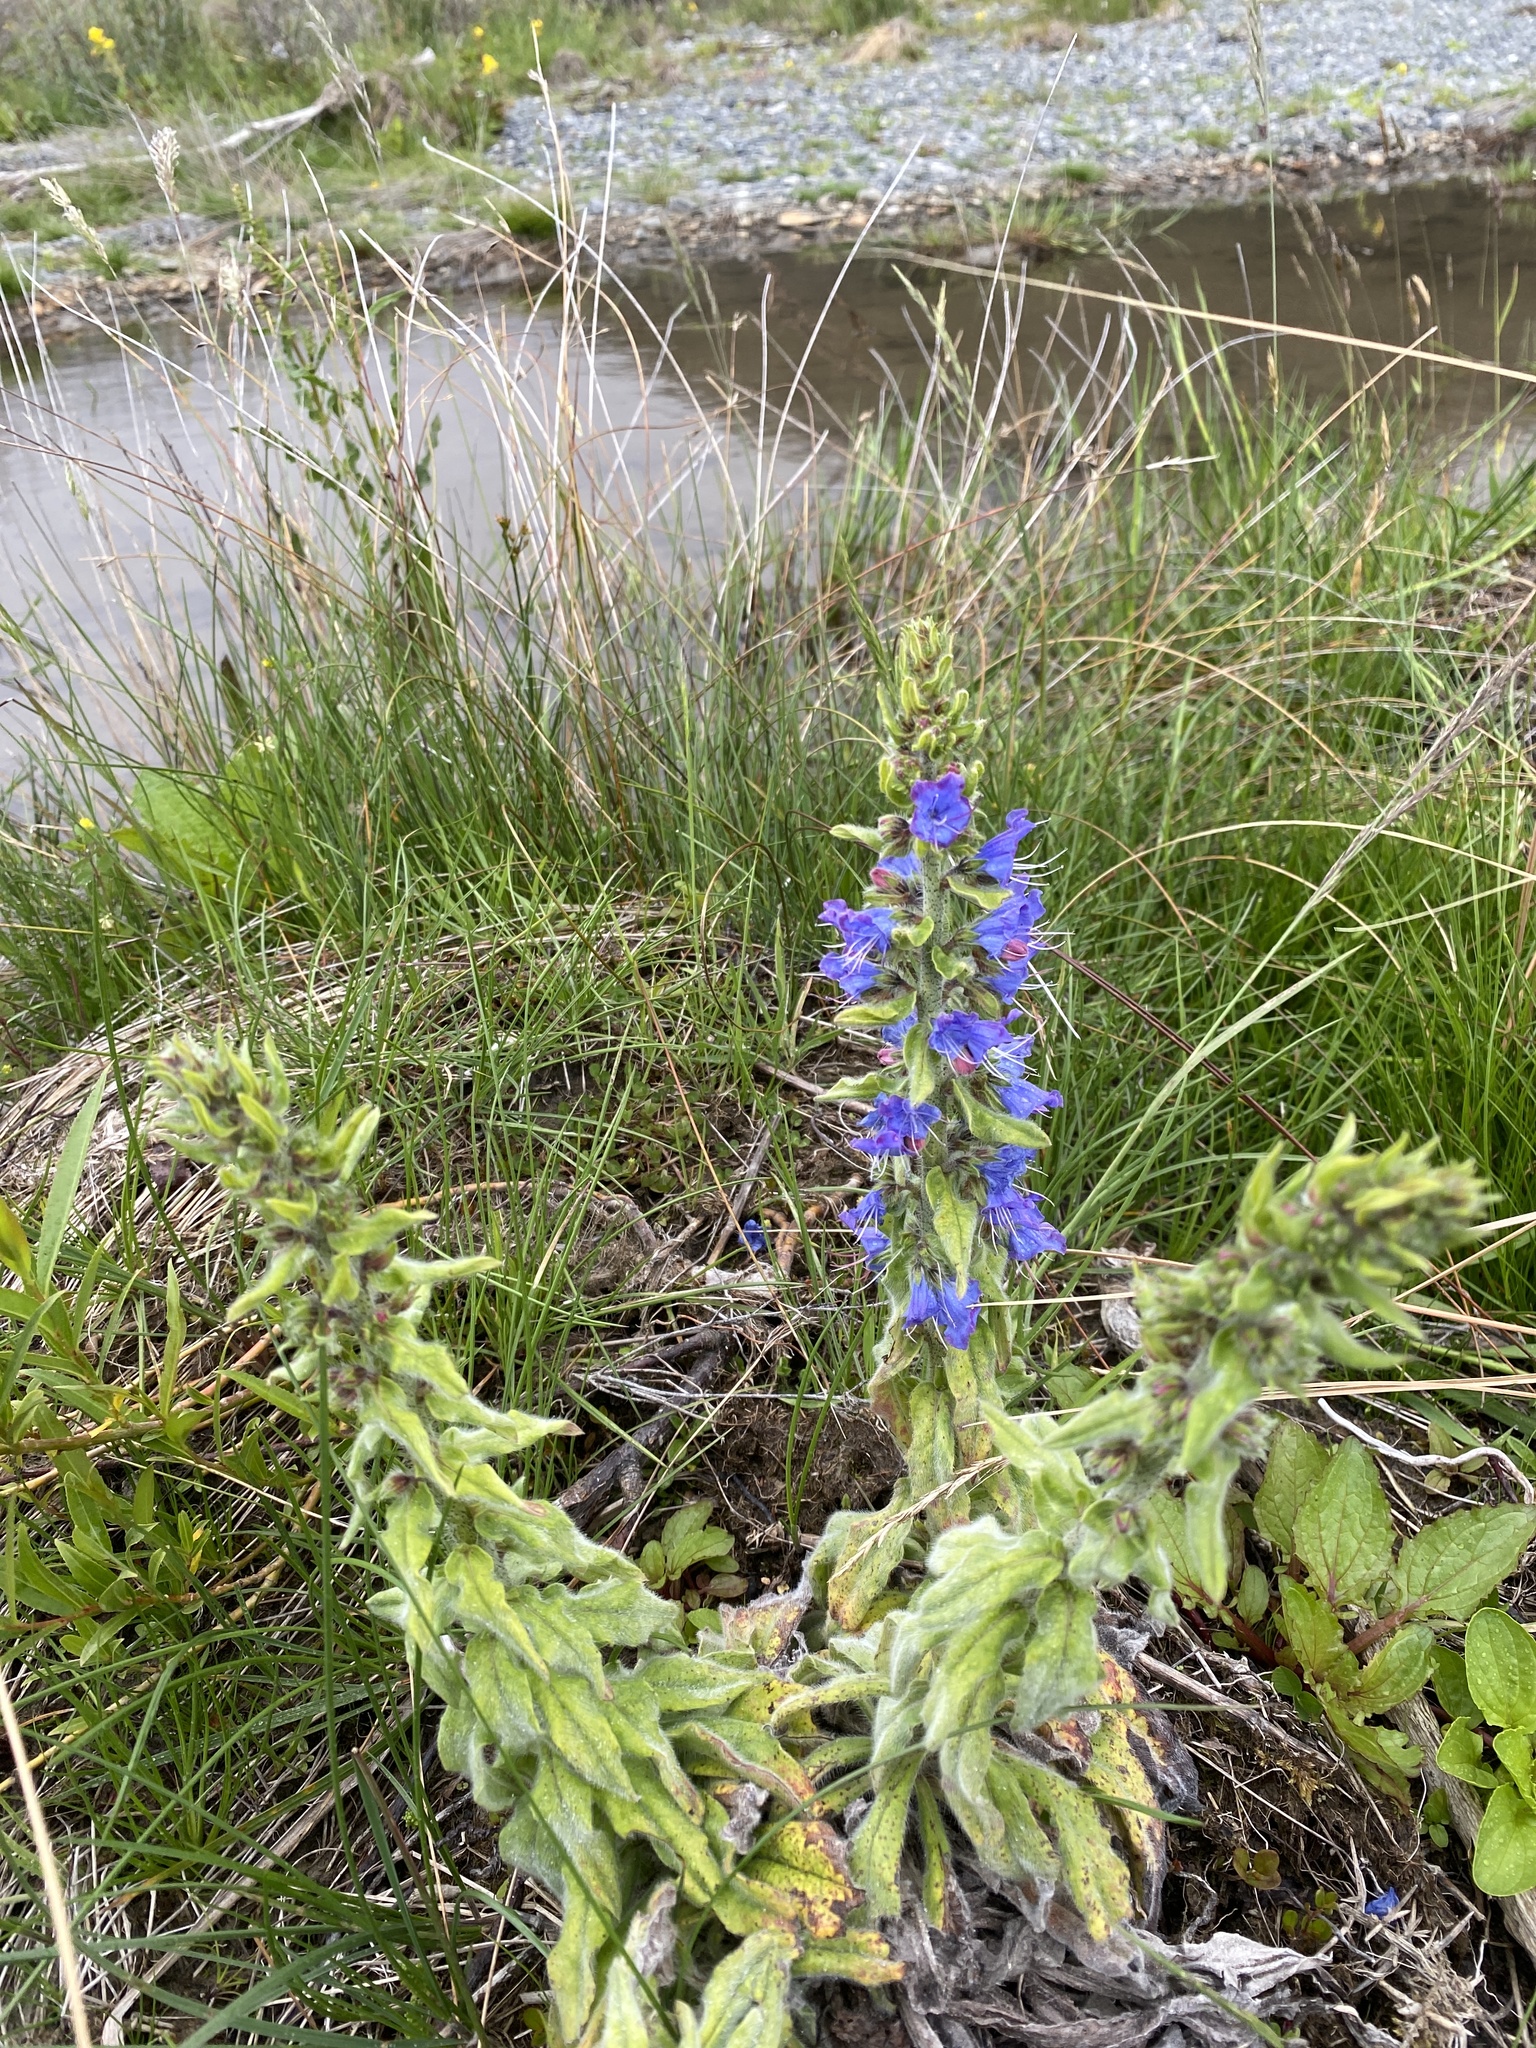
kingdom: Plantae
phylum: Tracheophyta
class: Magnoliopsida
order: Boraginales
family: Boraginaceae
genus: Echium
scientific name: Echium vulgare
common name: Common viper's bugloss
